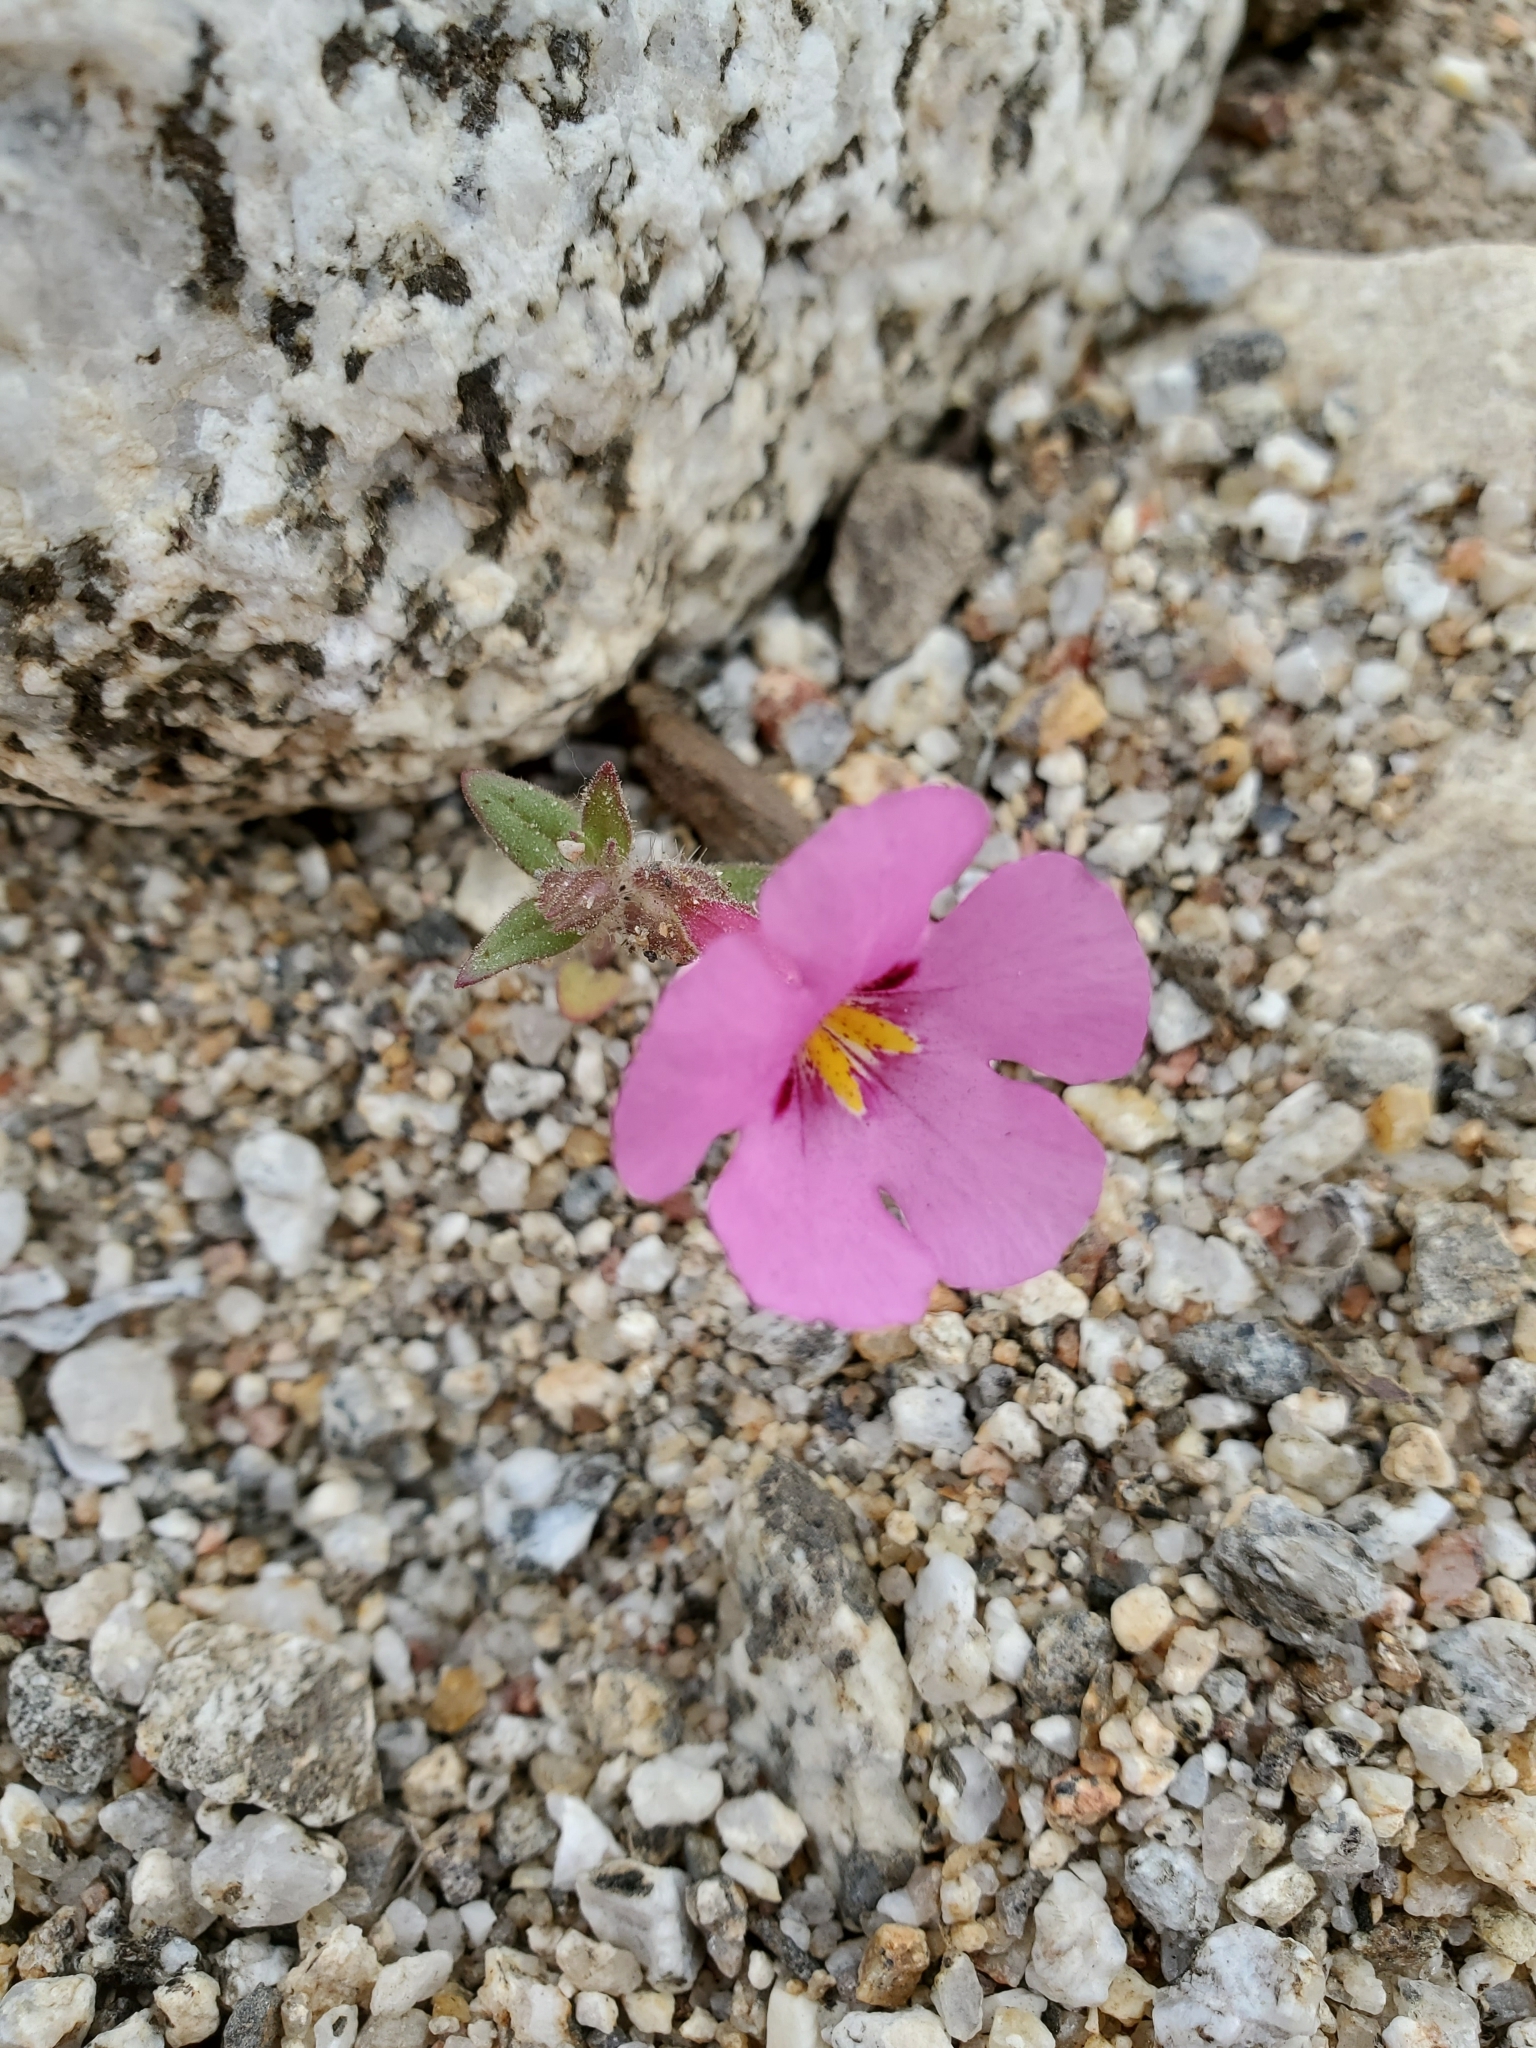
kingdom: Plantae
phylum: Tracheophyta
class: Magnoliopsida
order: Lamiales
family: Phrymaceae
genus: Diplacus
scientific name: Diplacus bigelovii
